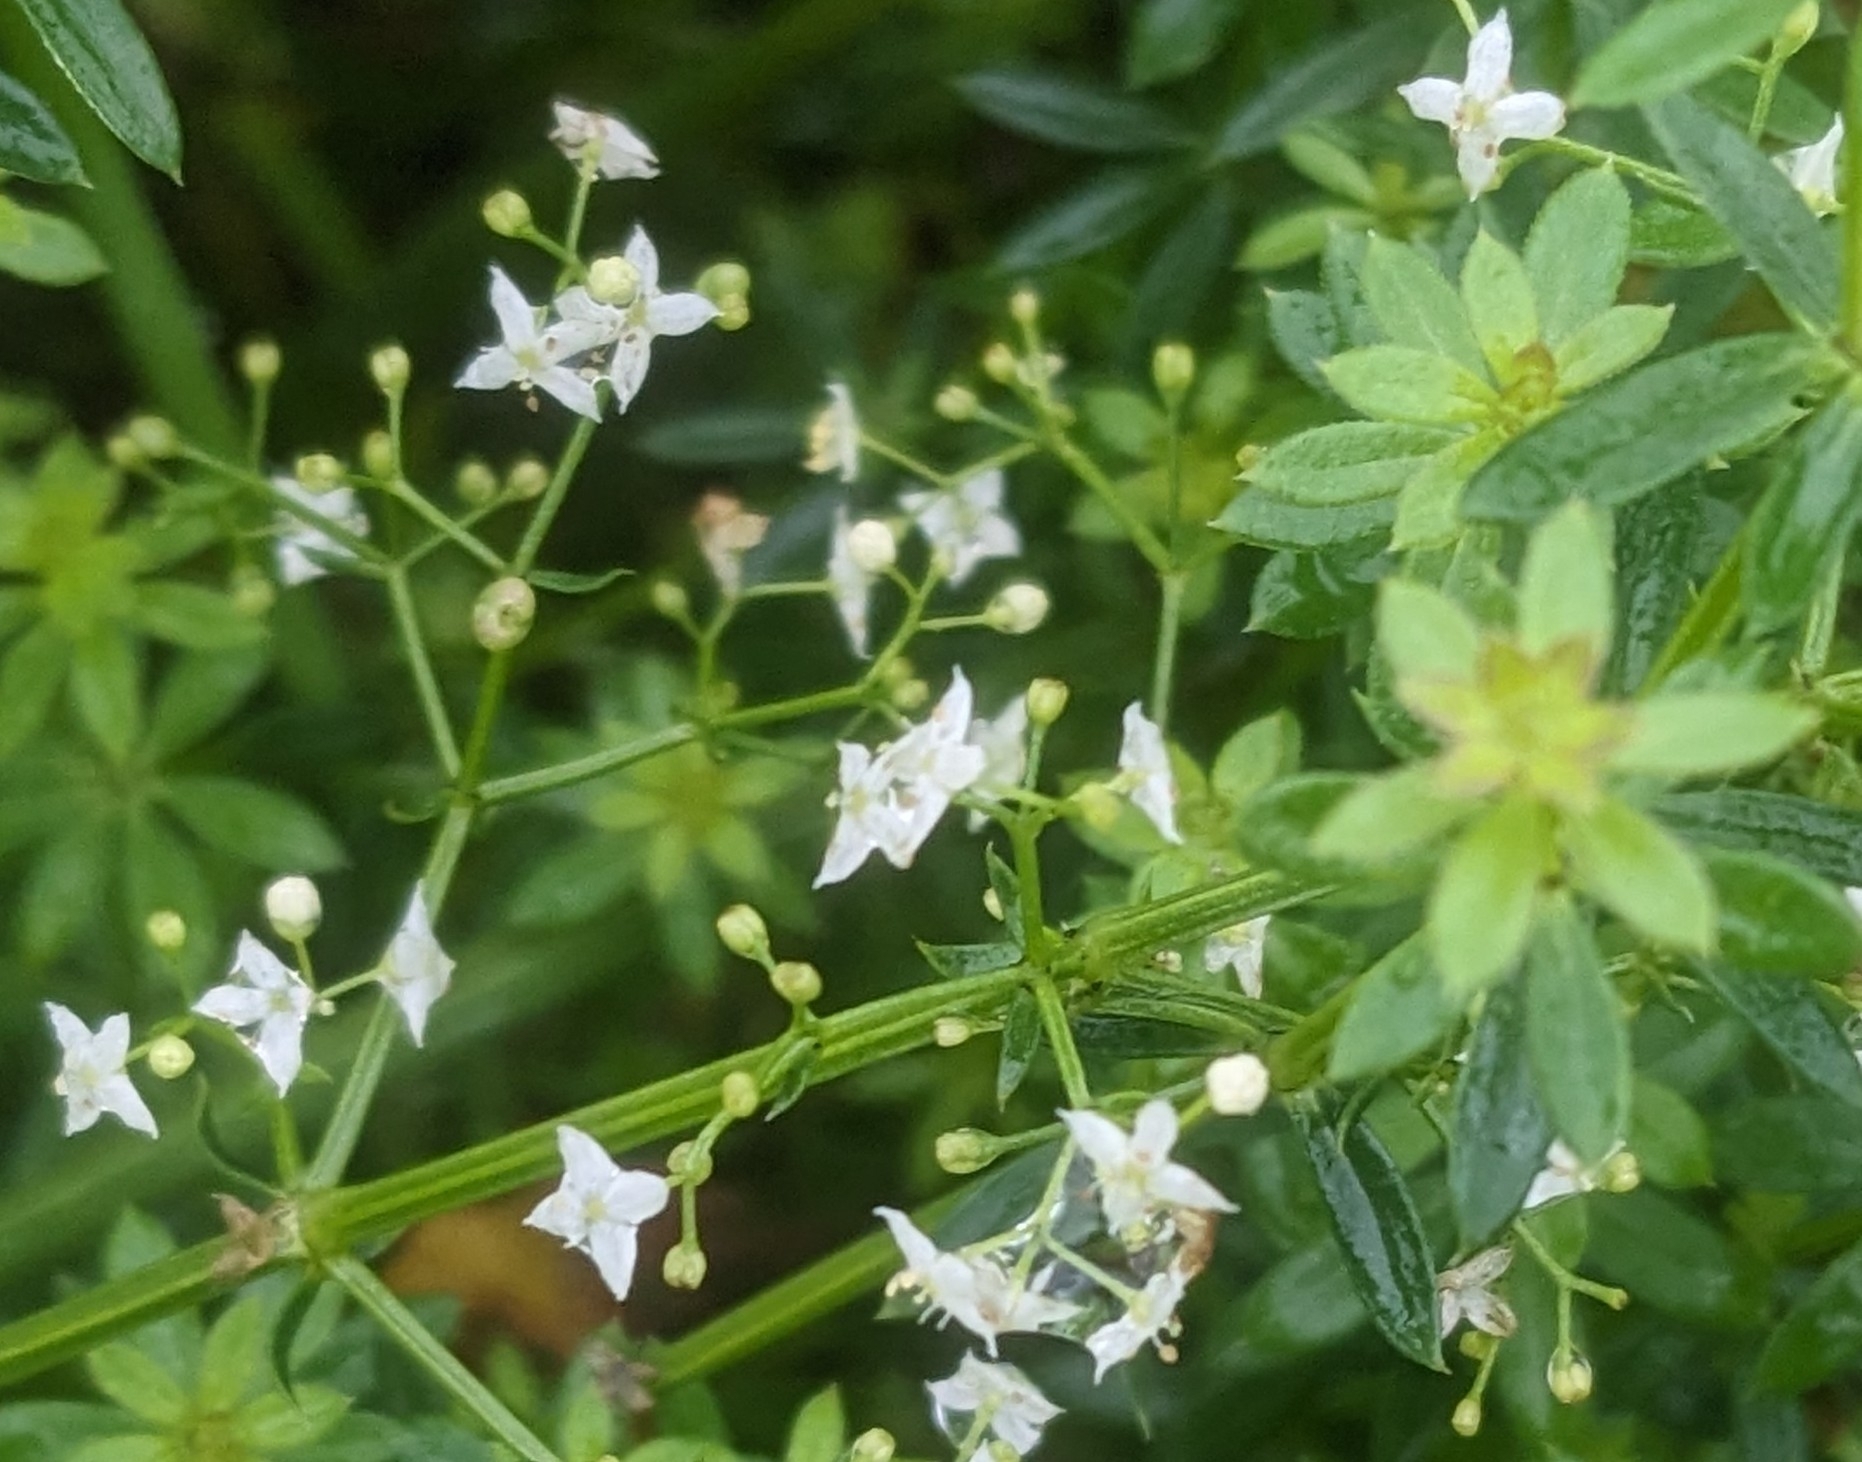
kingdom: Plantae
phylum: Tracheophyta
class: Magnoliopsida
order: Gentianales
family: Rubiaceae
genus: Galium
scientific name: Galium album
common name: White bedstraw
